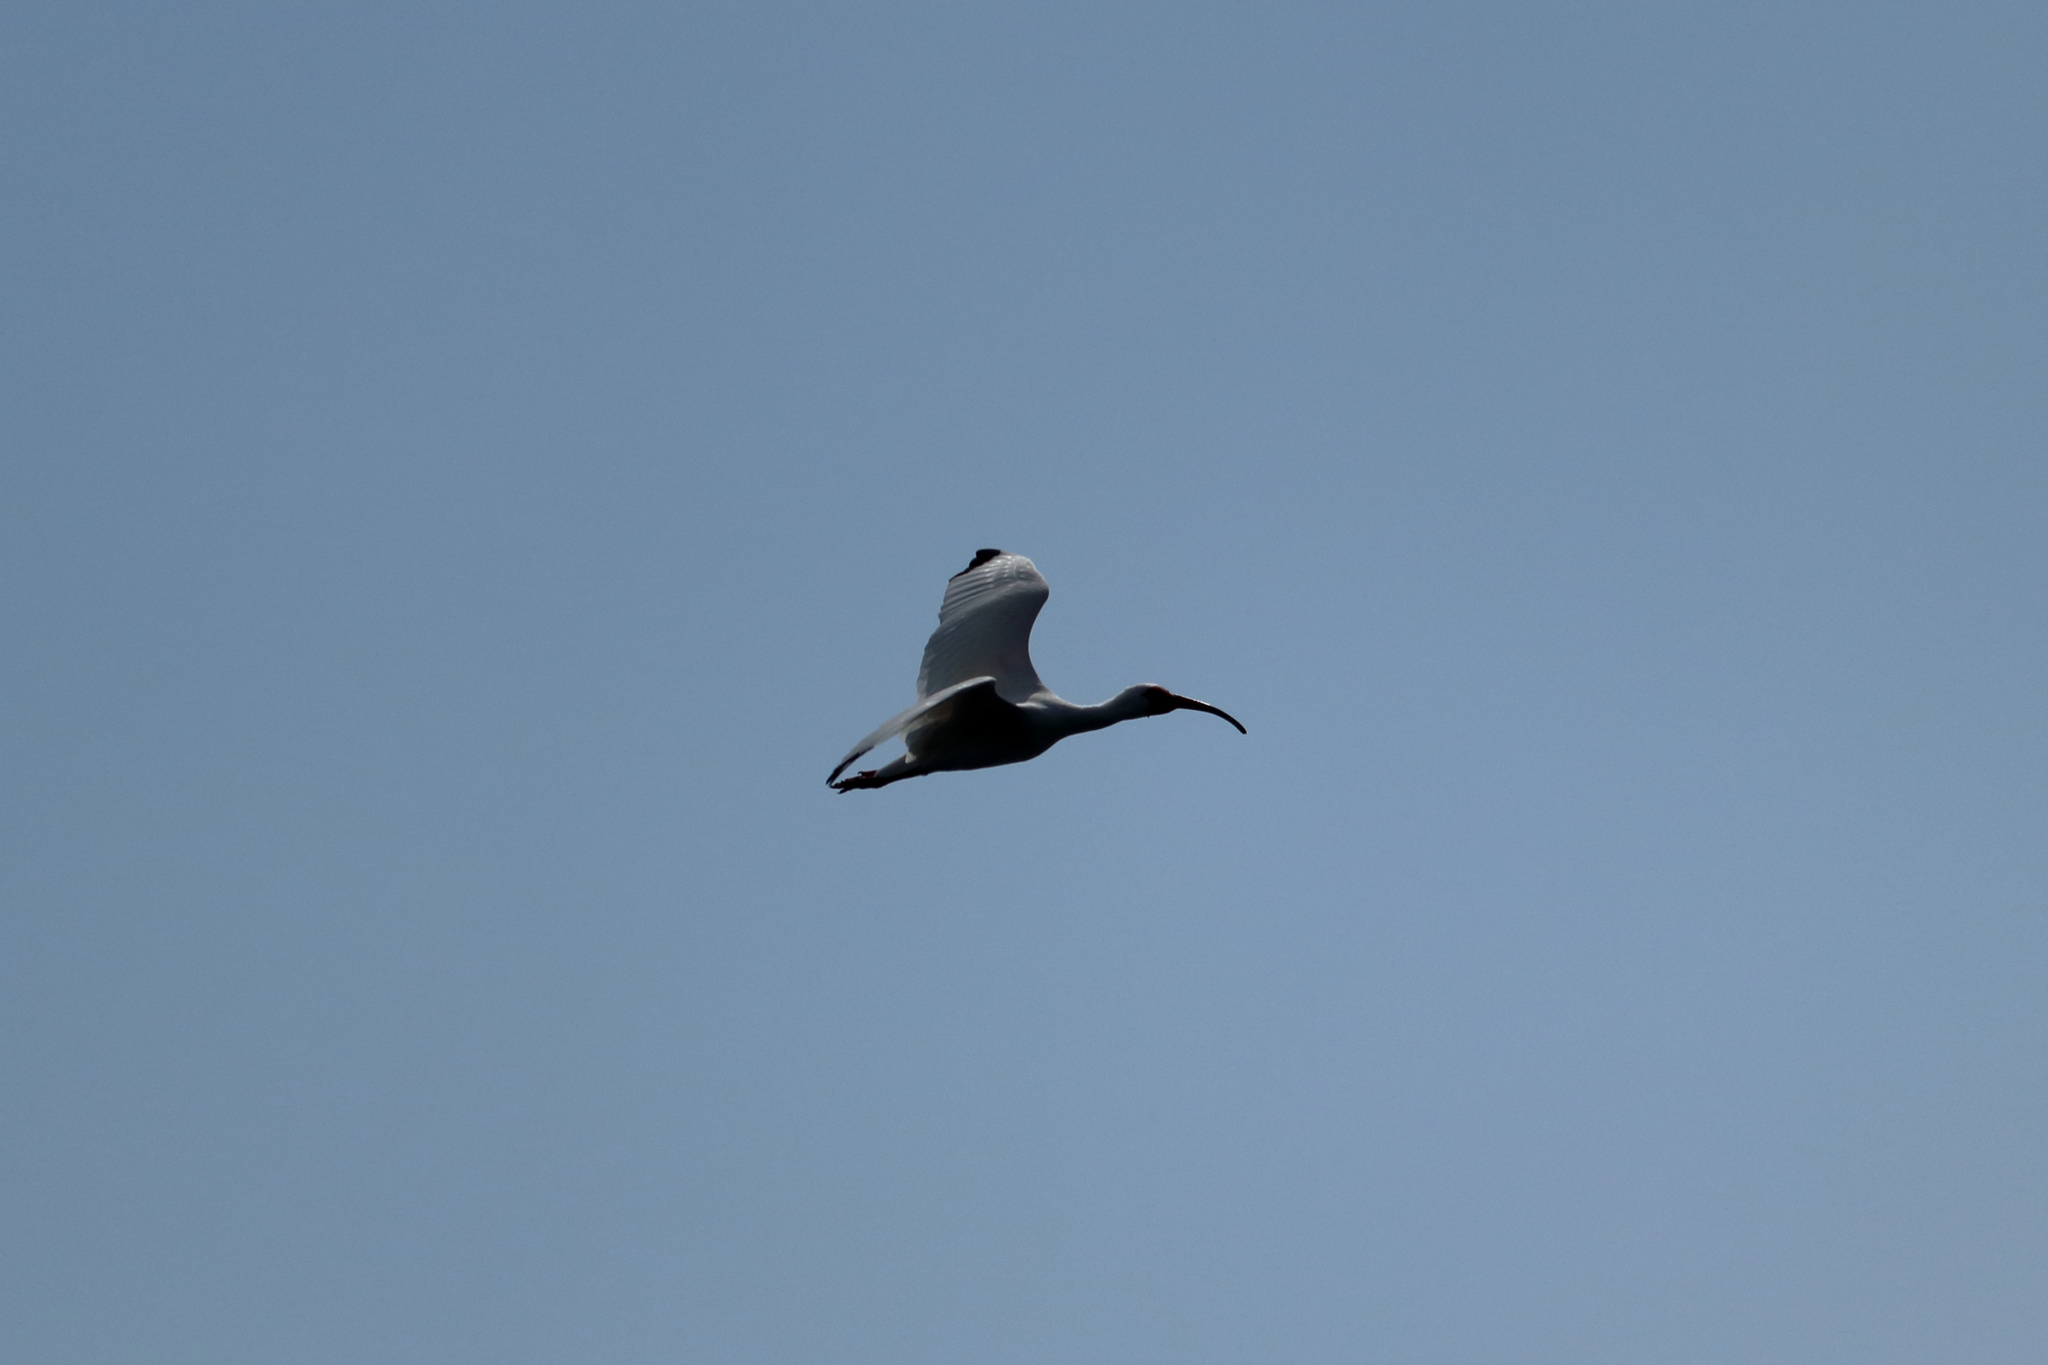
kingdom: Animalia
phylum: Chordata
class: Aves
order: Pelecaniformes
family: Threskiornithidae
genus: Eudocimus
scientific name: Eudocimus albus
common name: White ibis
